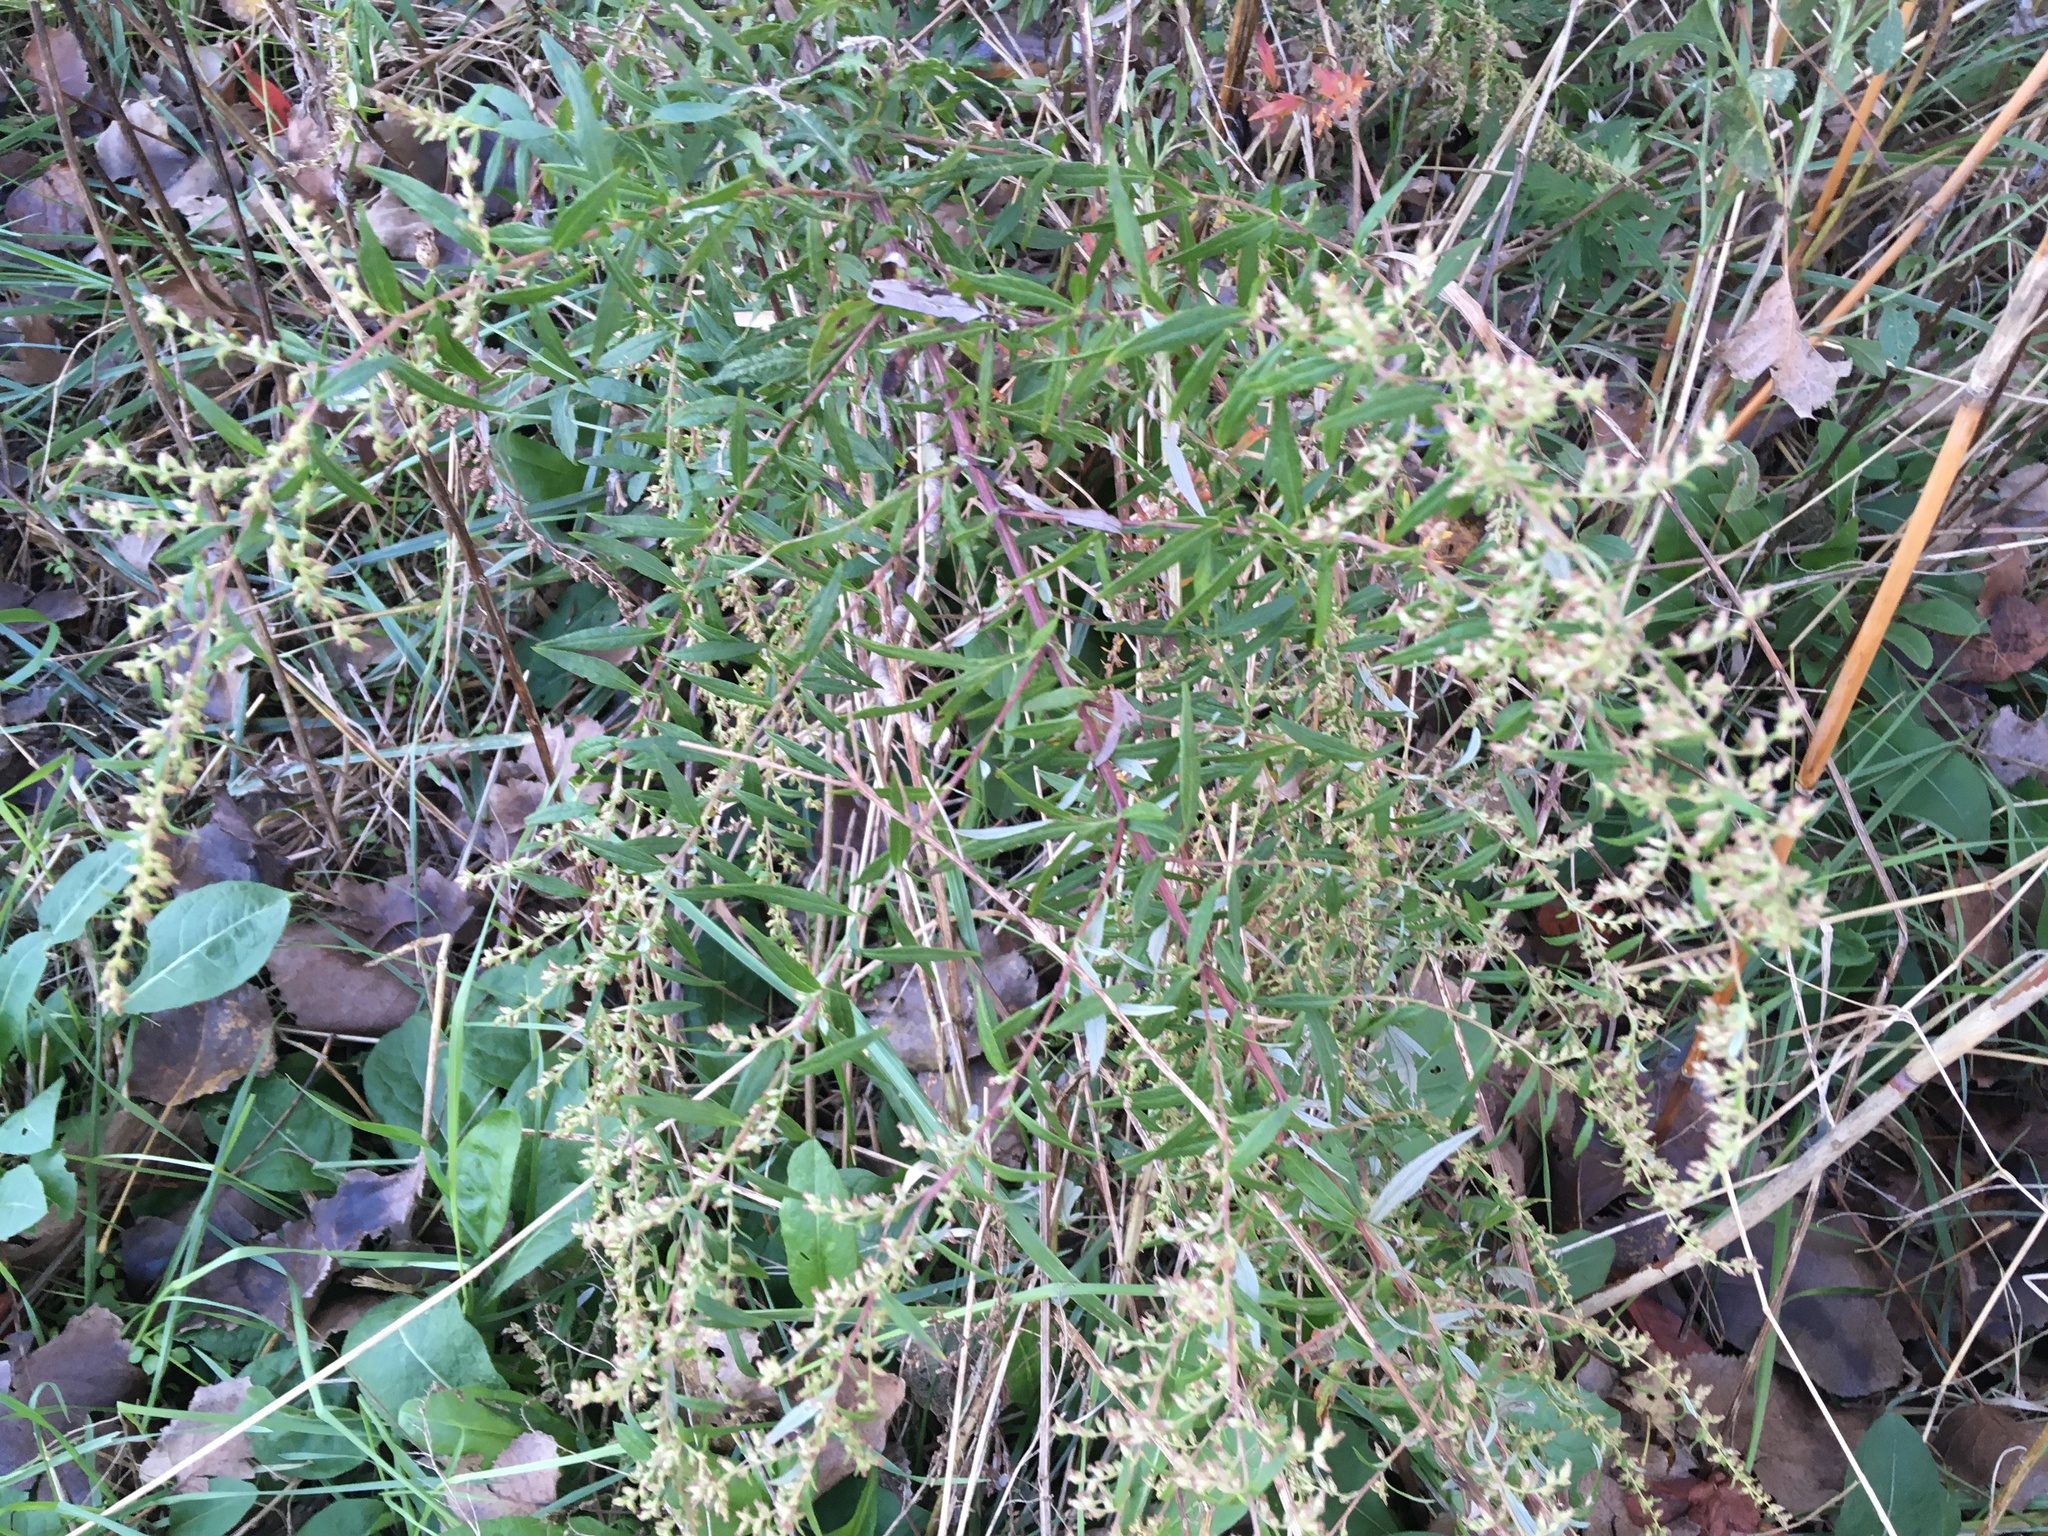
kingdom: Plantae
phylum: Tracheophyta
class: Magnoliopsida
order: Asterales
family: Asteraceae
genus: Artemisia
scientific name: Artemisia vulgaris
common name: Mugwort
